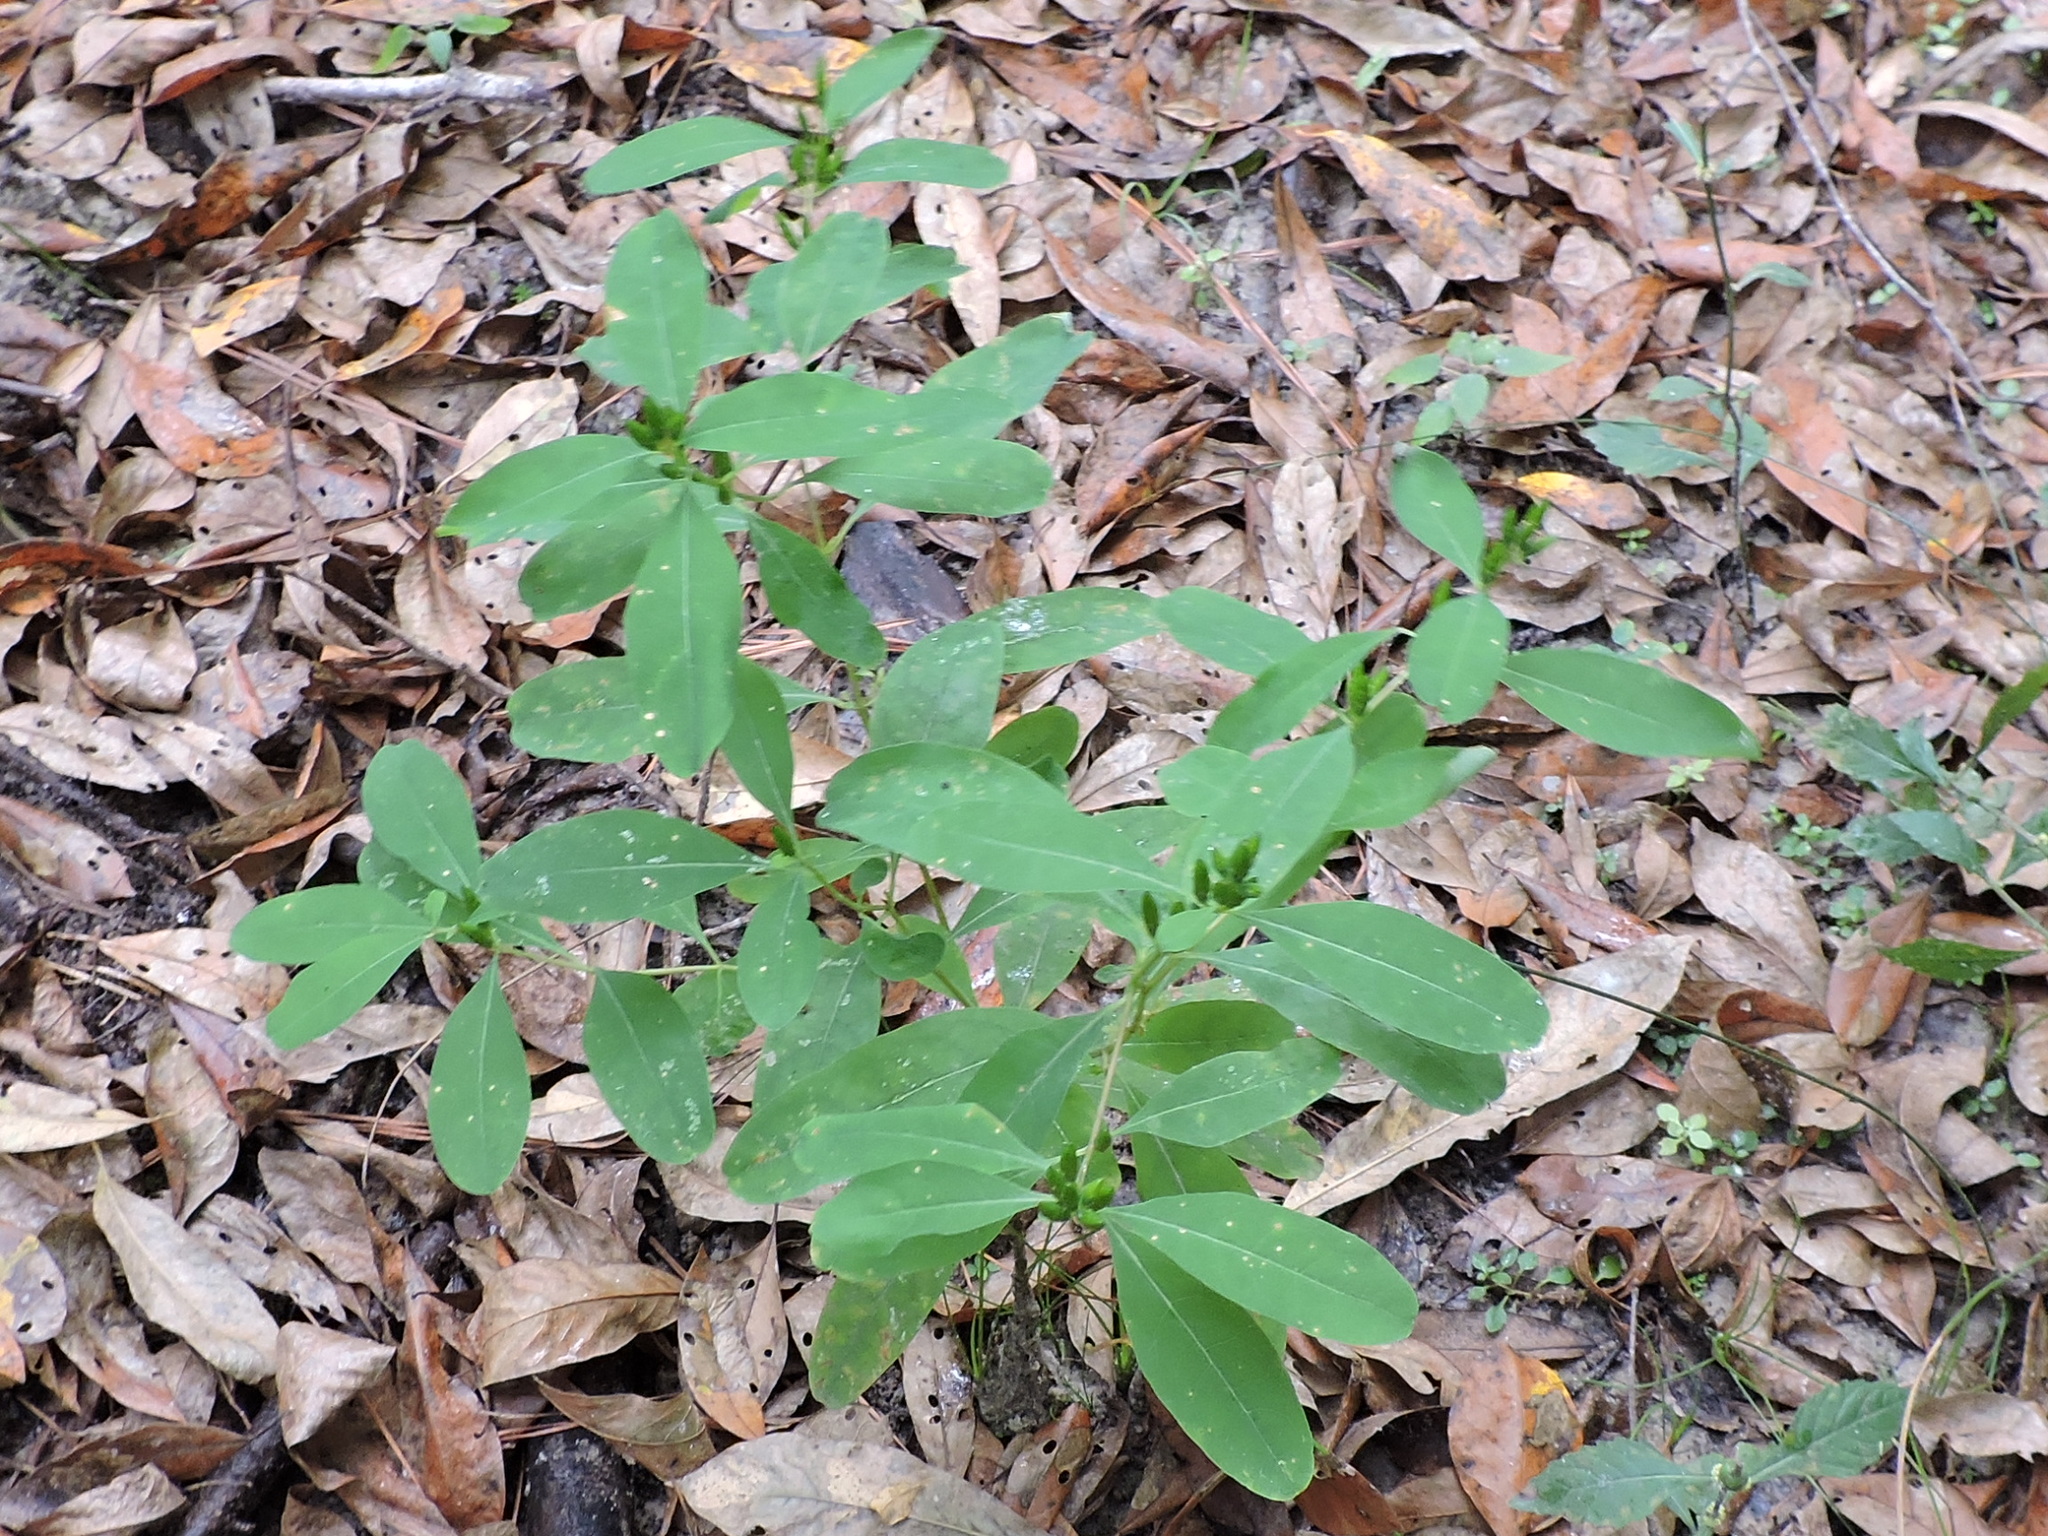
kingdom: Plantae
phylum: Tracheophyta
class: Magnoliopsida
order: Malpighiales
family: Hypericaceae
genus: Triadenum
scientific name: Triadenum walteri
